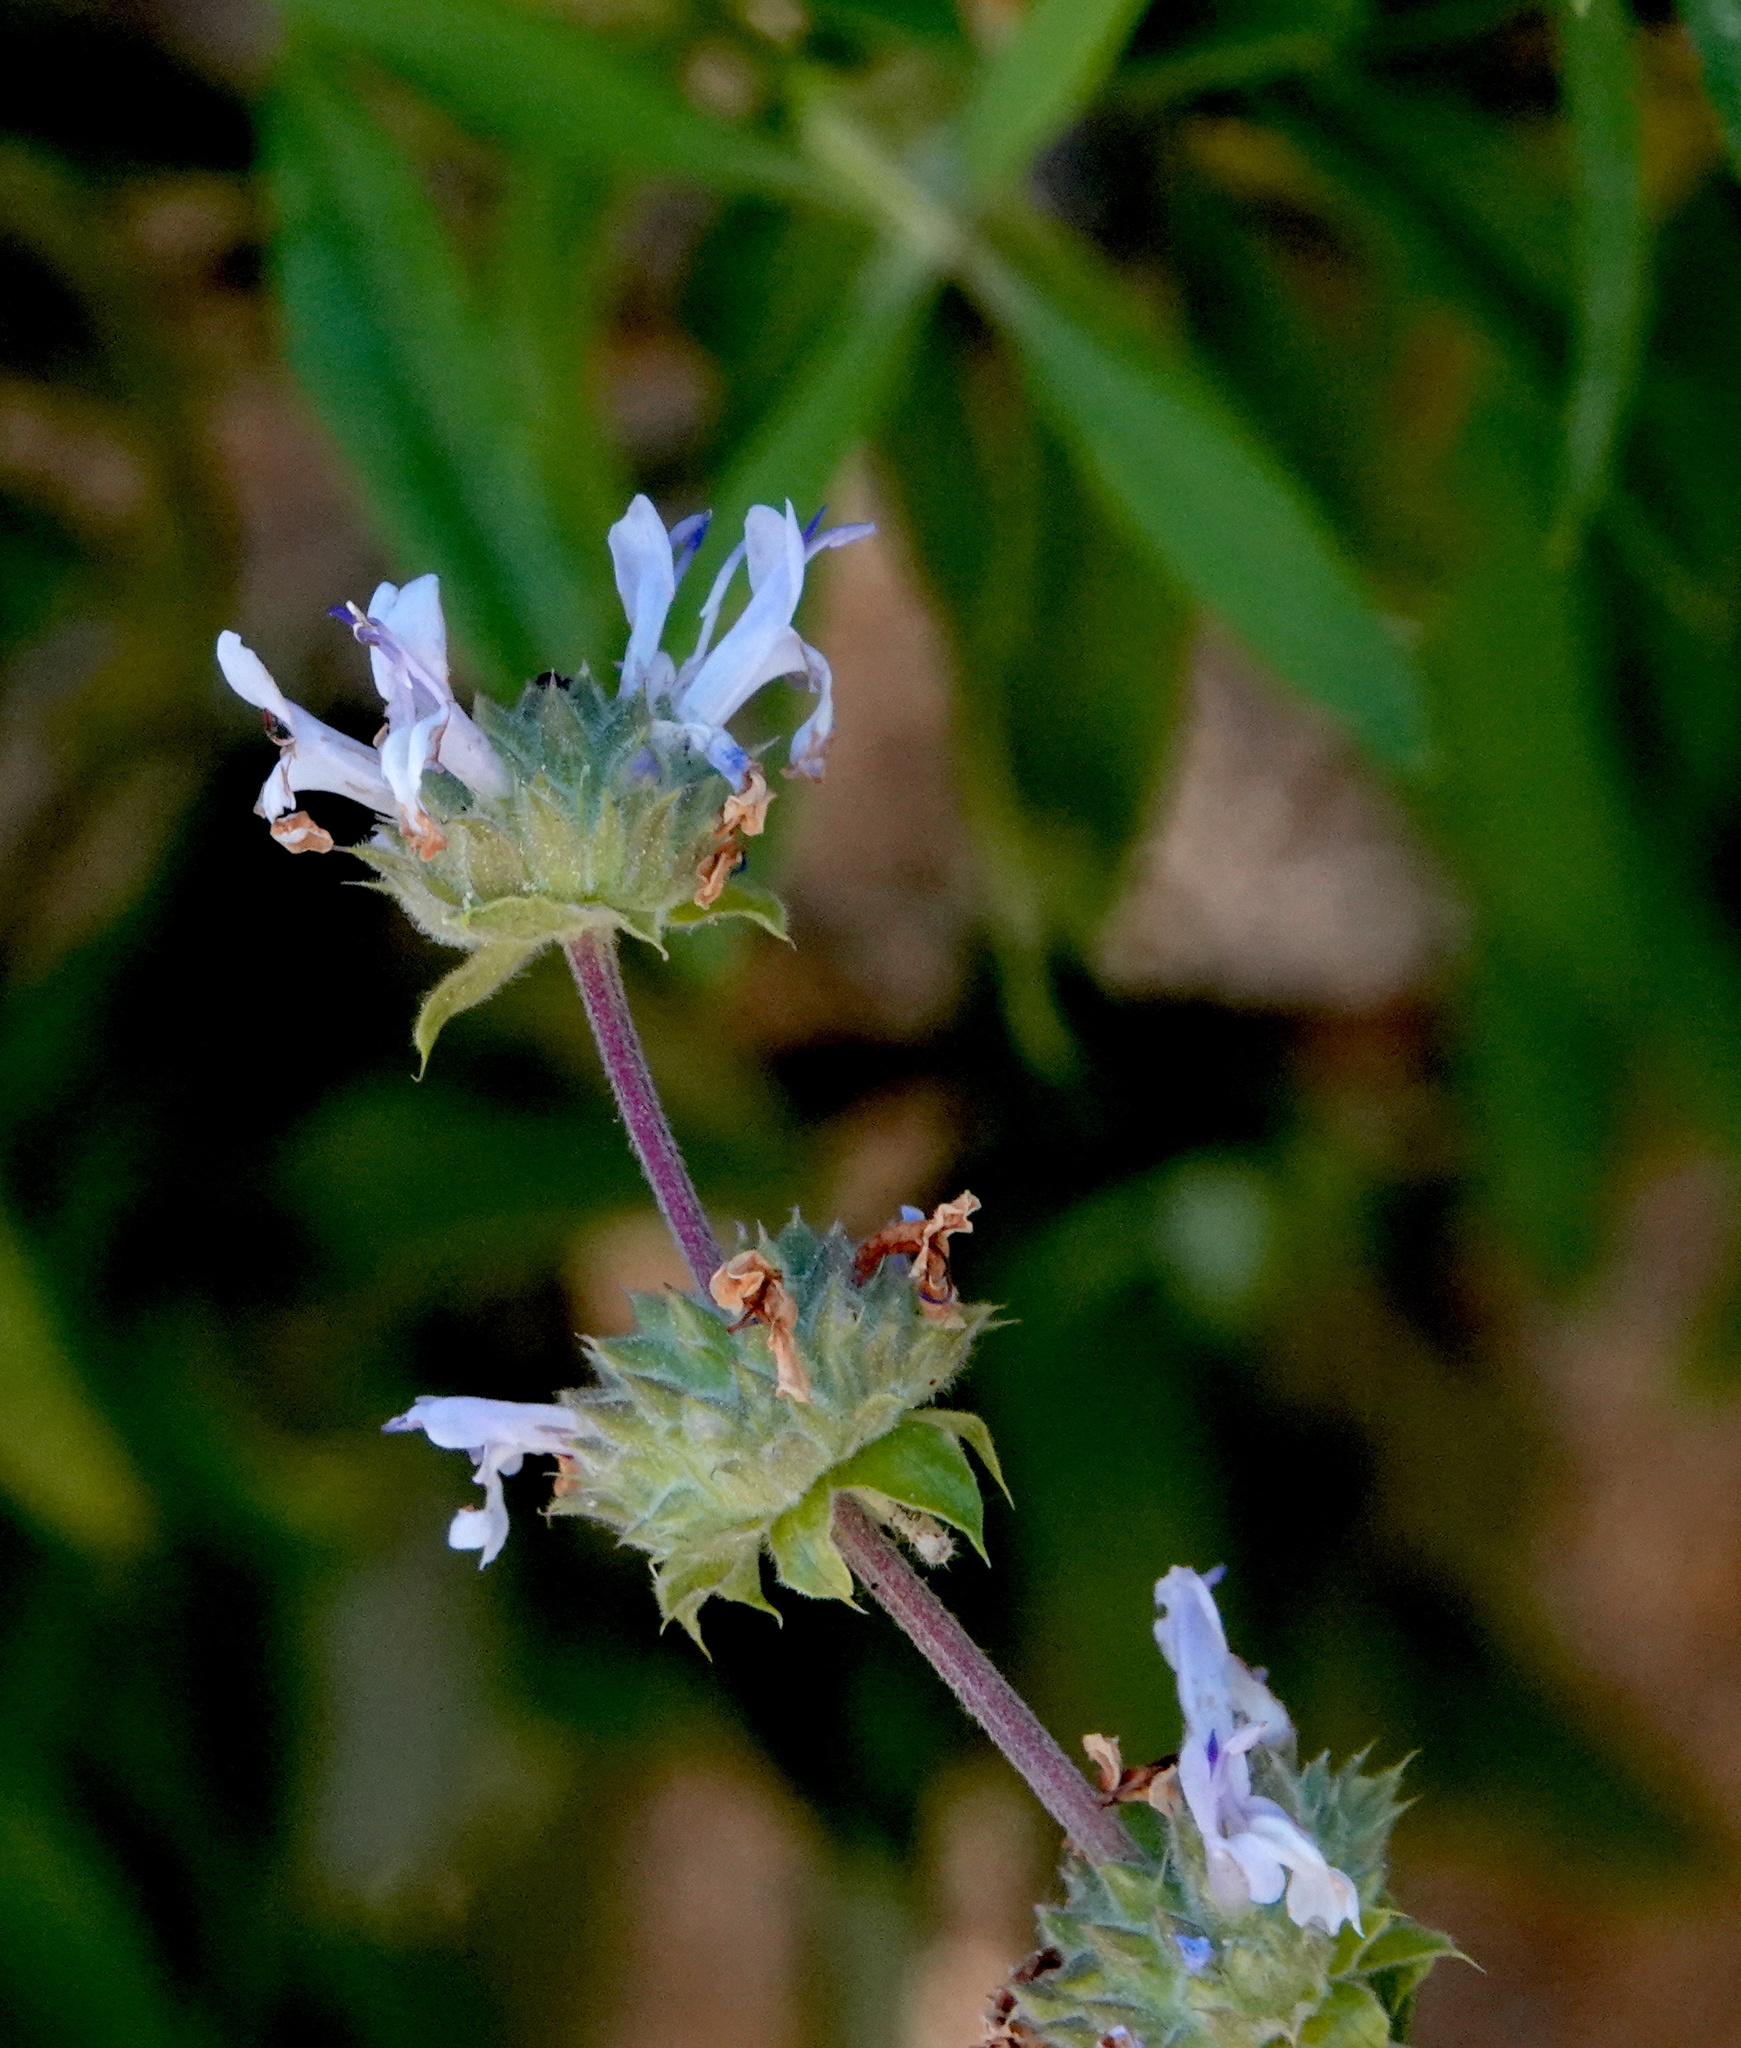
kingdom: Plantae
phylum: Tracheophyta
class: Magnoliopsida
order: Lamiales
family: Lamiaceae
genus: Salvia
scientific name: Salvia mellifera
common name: Black sage
